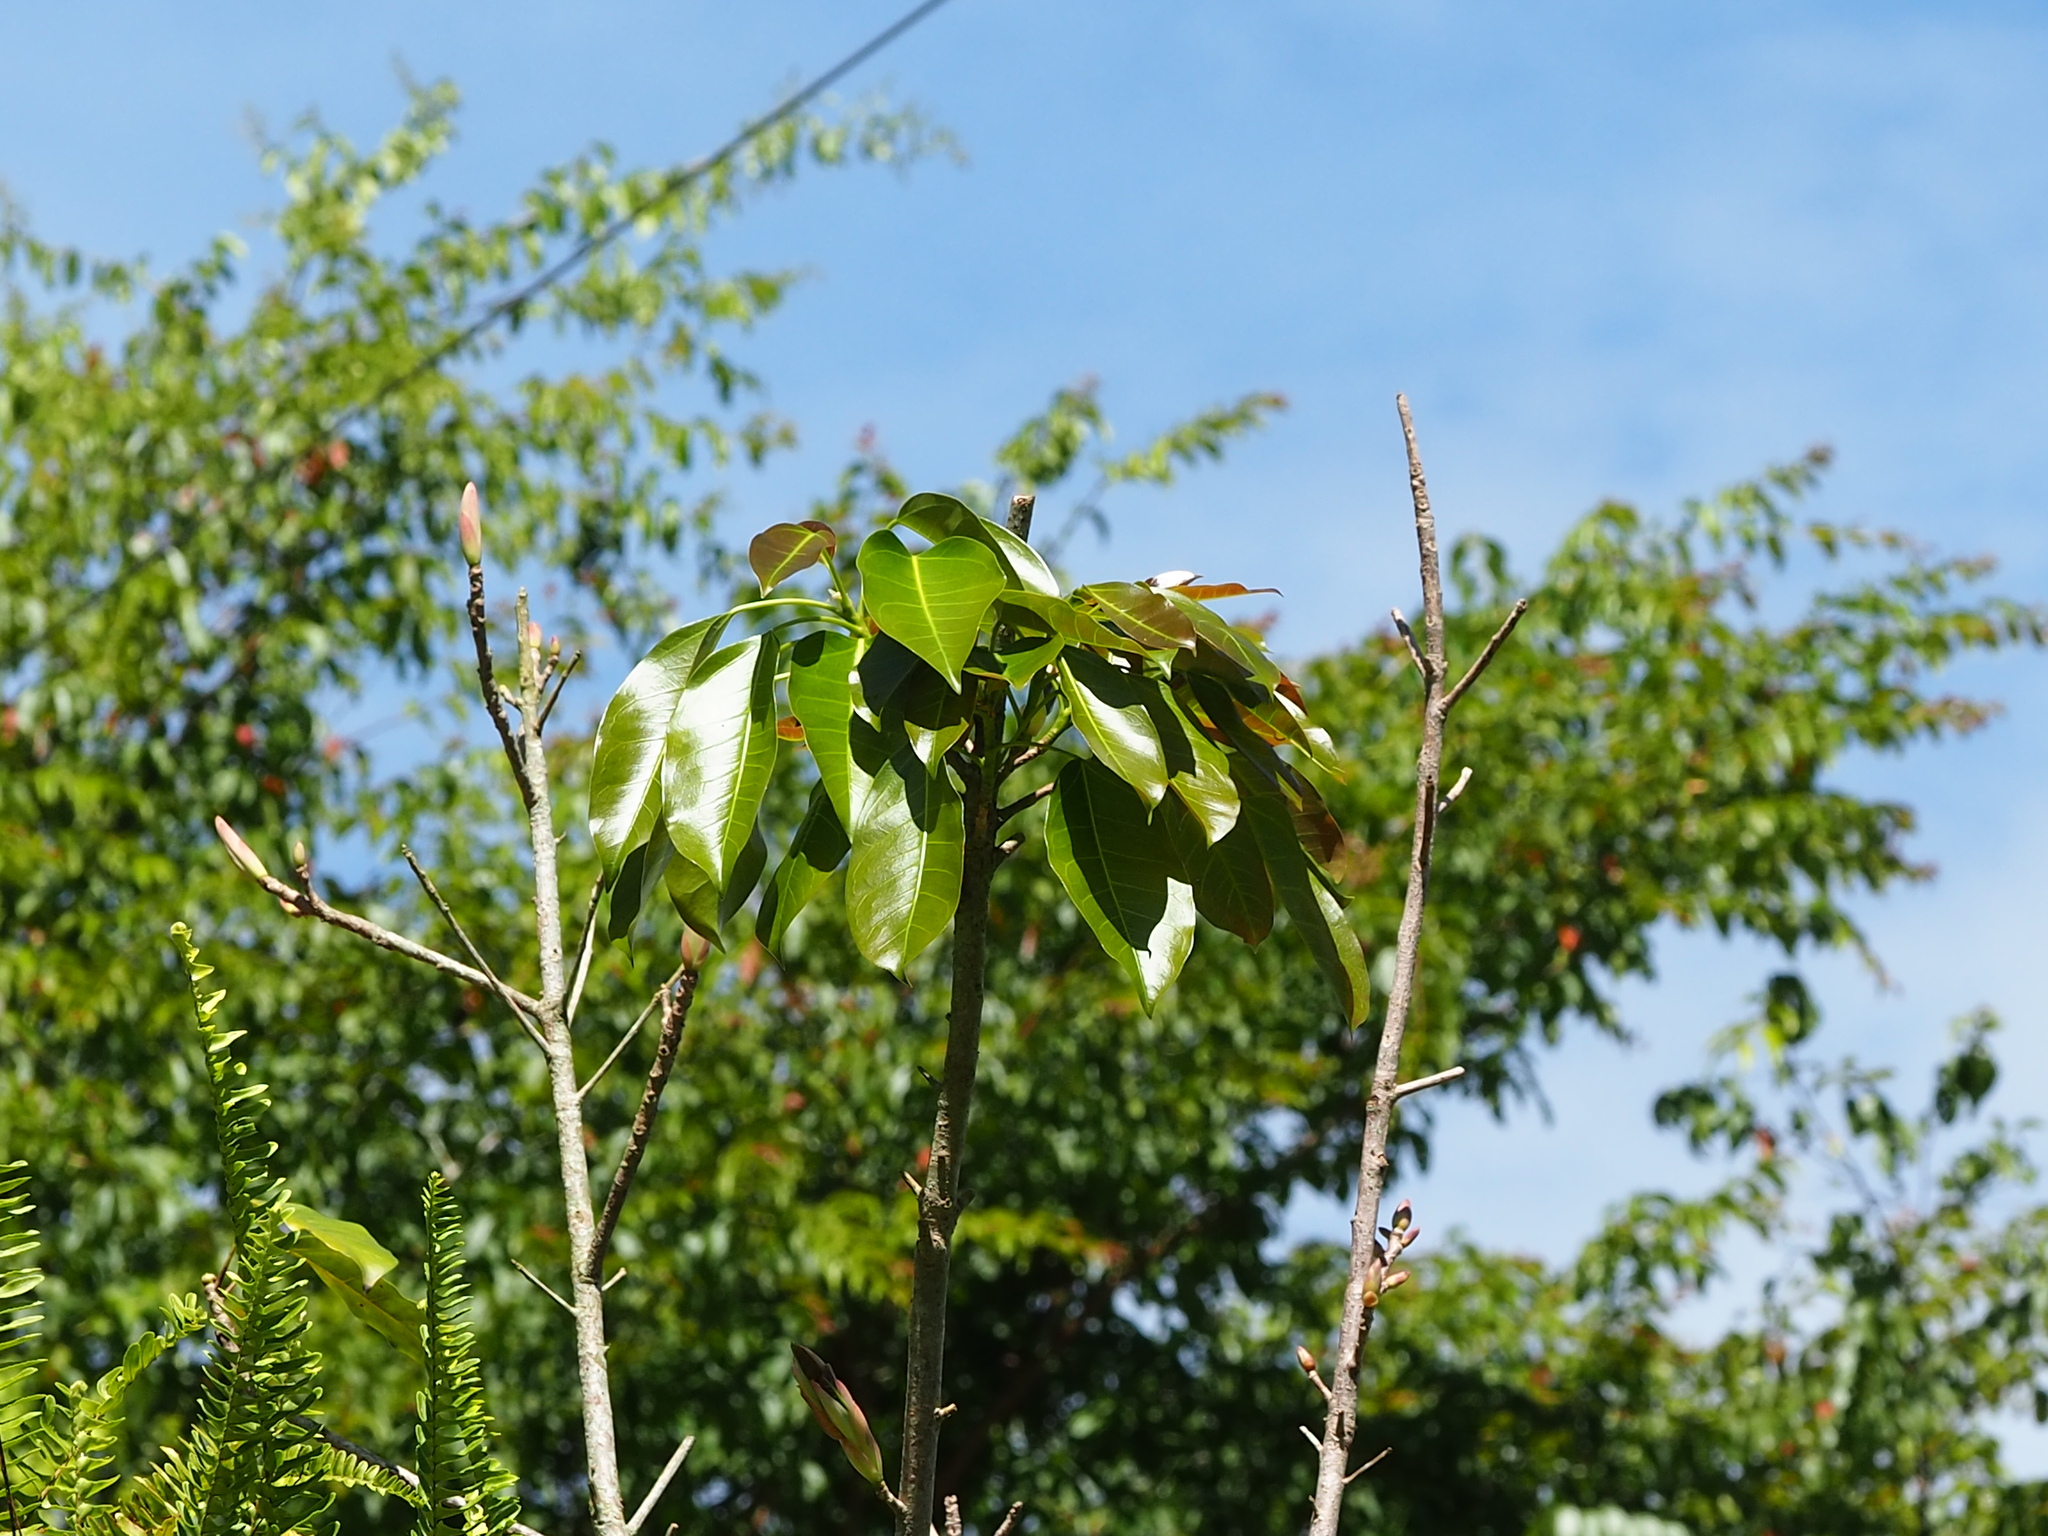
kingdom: Plantae
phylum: Tracheophyta
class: Magnoliopsida
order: Rosales
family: Moraceae
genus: Ficus
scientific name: Ficus subpisocarpa
